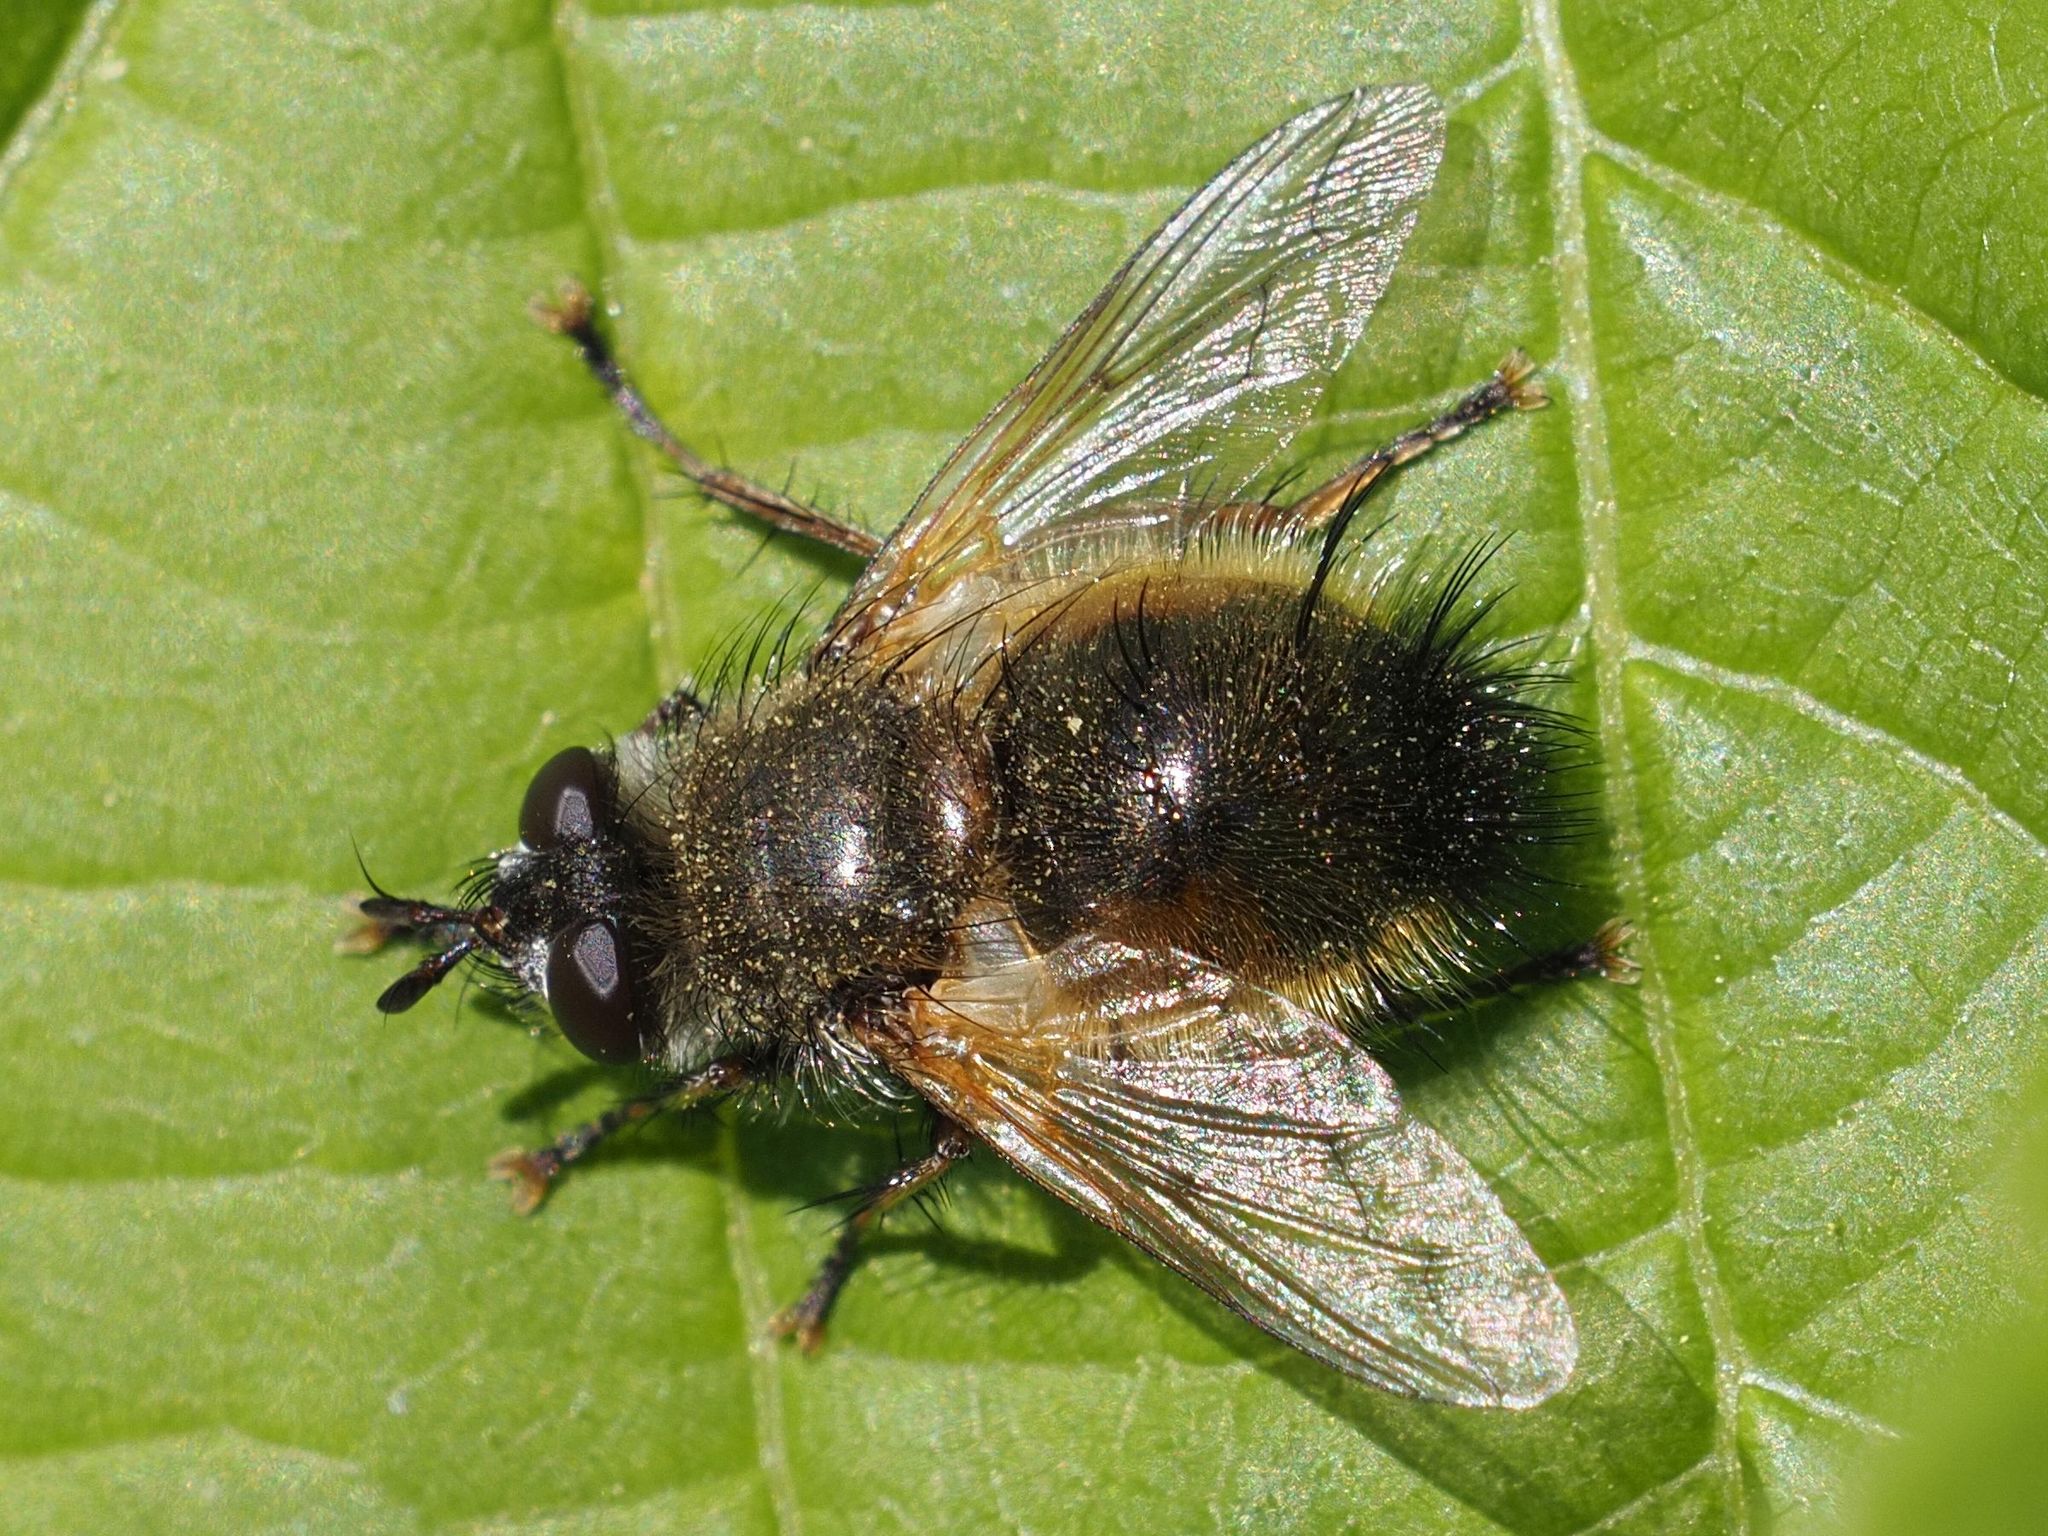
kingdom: Animalia
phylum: Arthropoda
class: Insecta
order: Diptera
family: Tachinidae
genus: Tachina
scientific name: Tachina lurida
